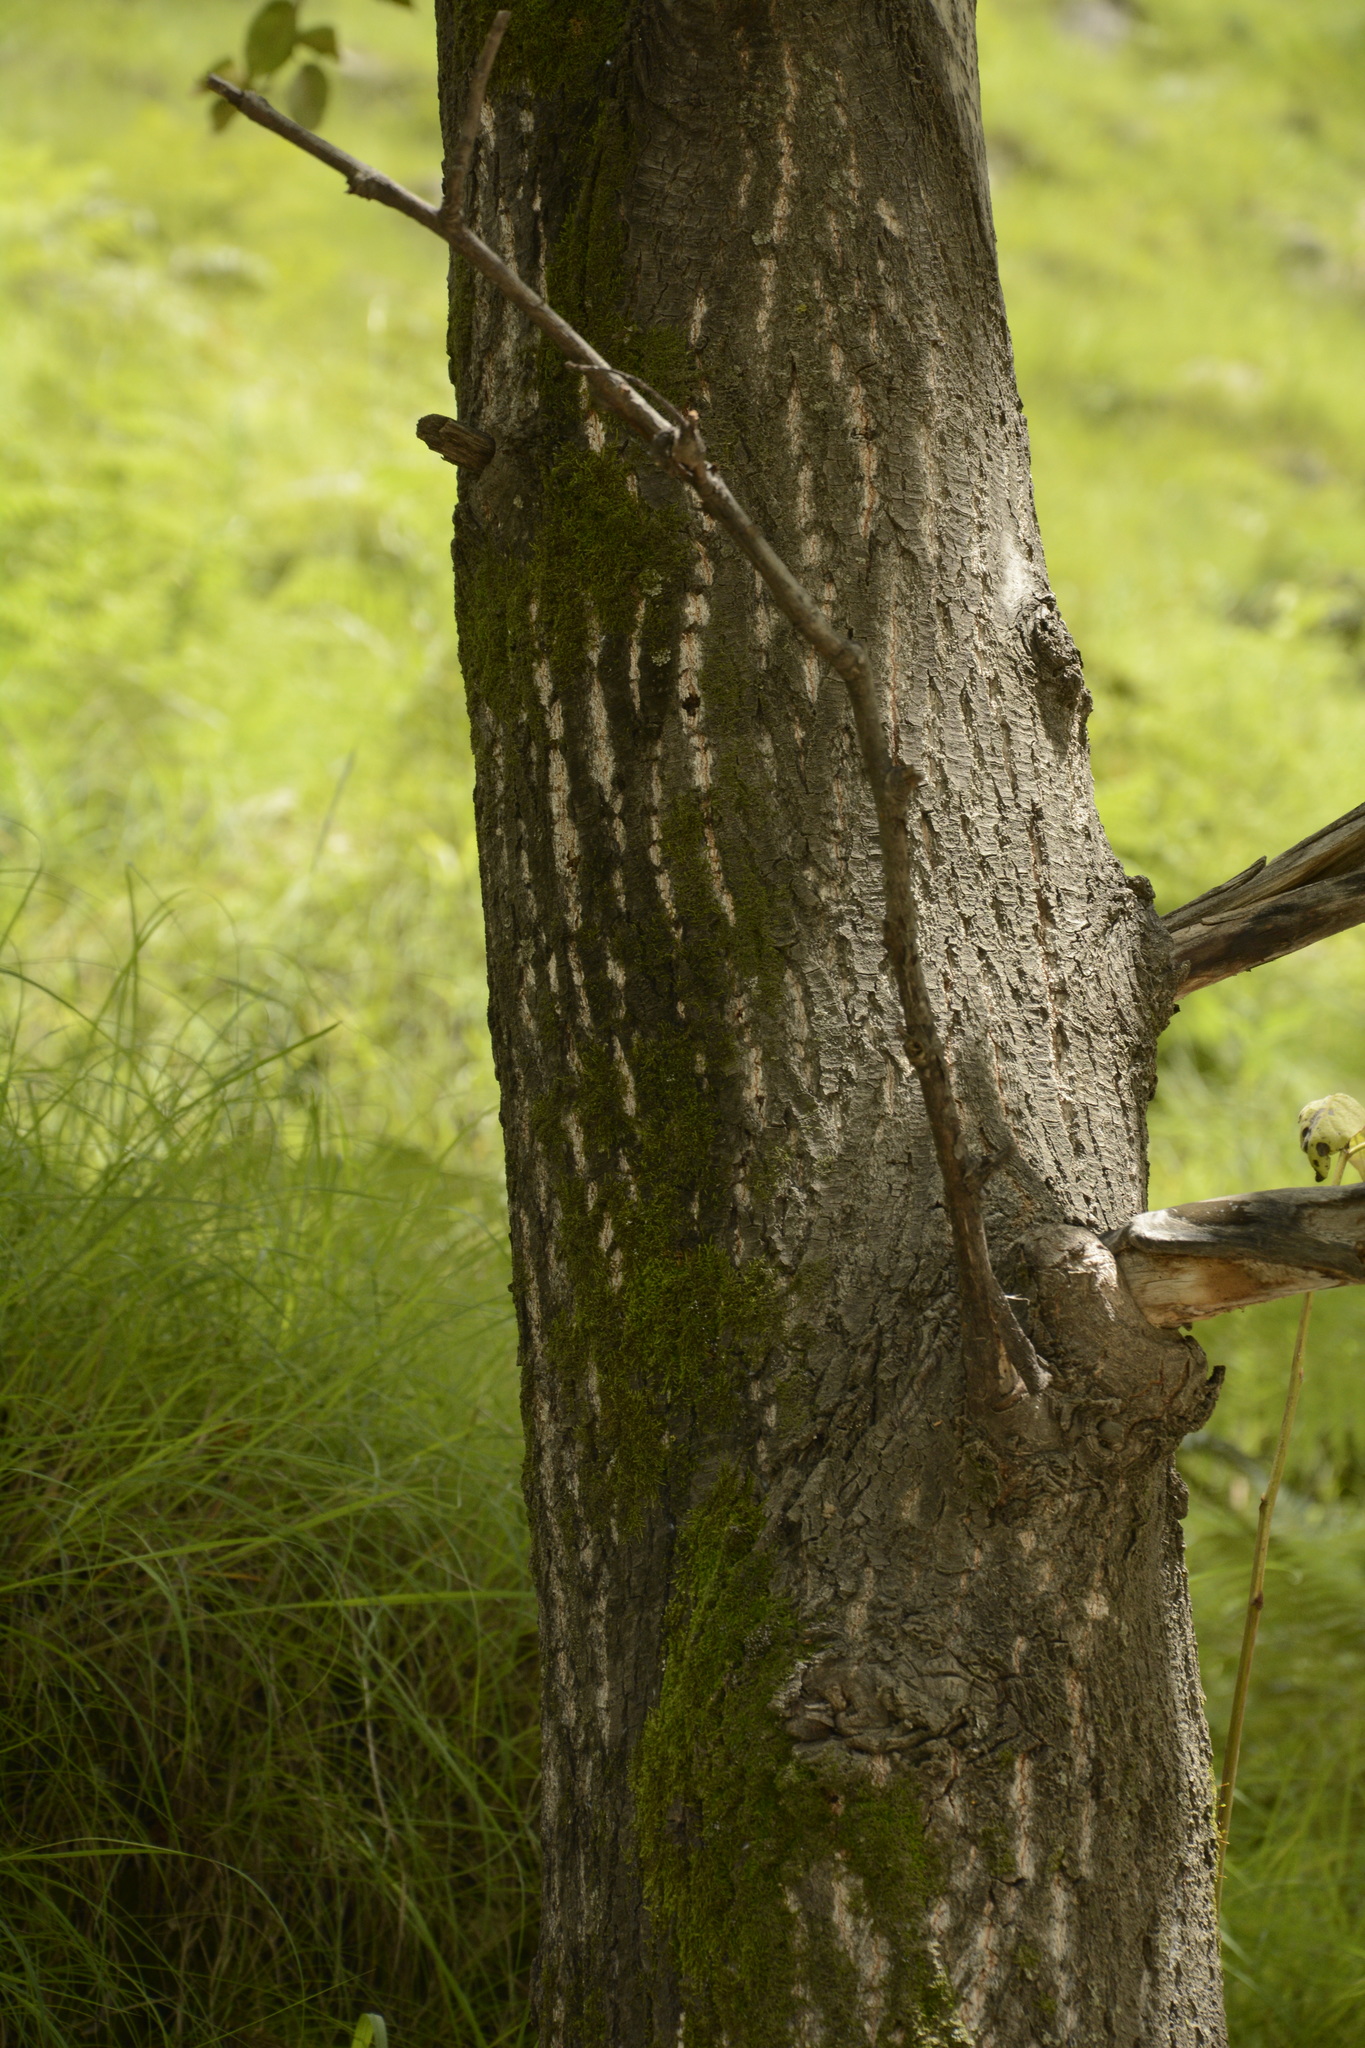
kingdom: Plantae
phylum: Tracheophyta
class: Magnoliopsida
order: Malpighiales
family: Salicaceae
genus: Populus
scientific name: Populus ciliata
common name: Himalayan poplar
